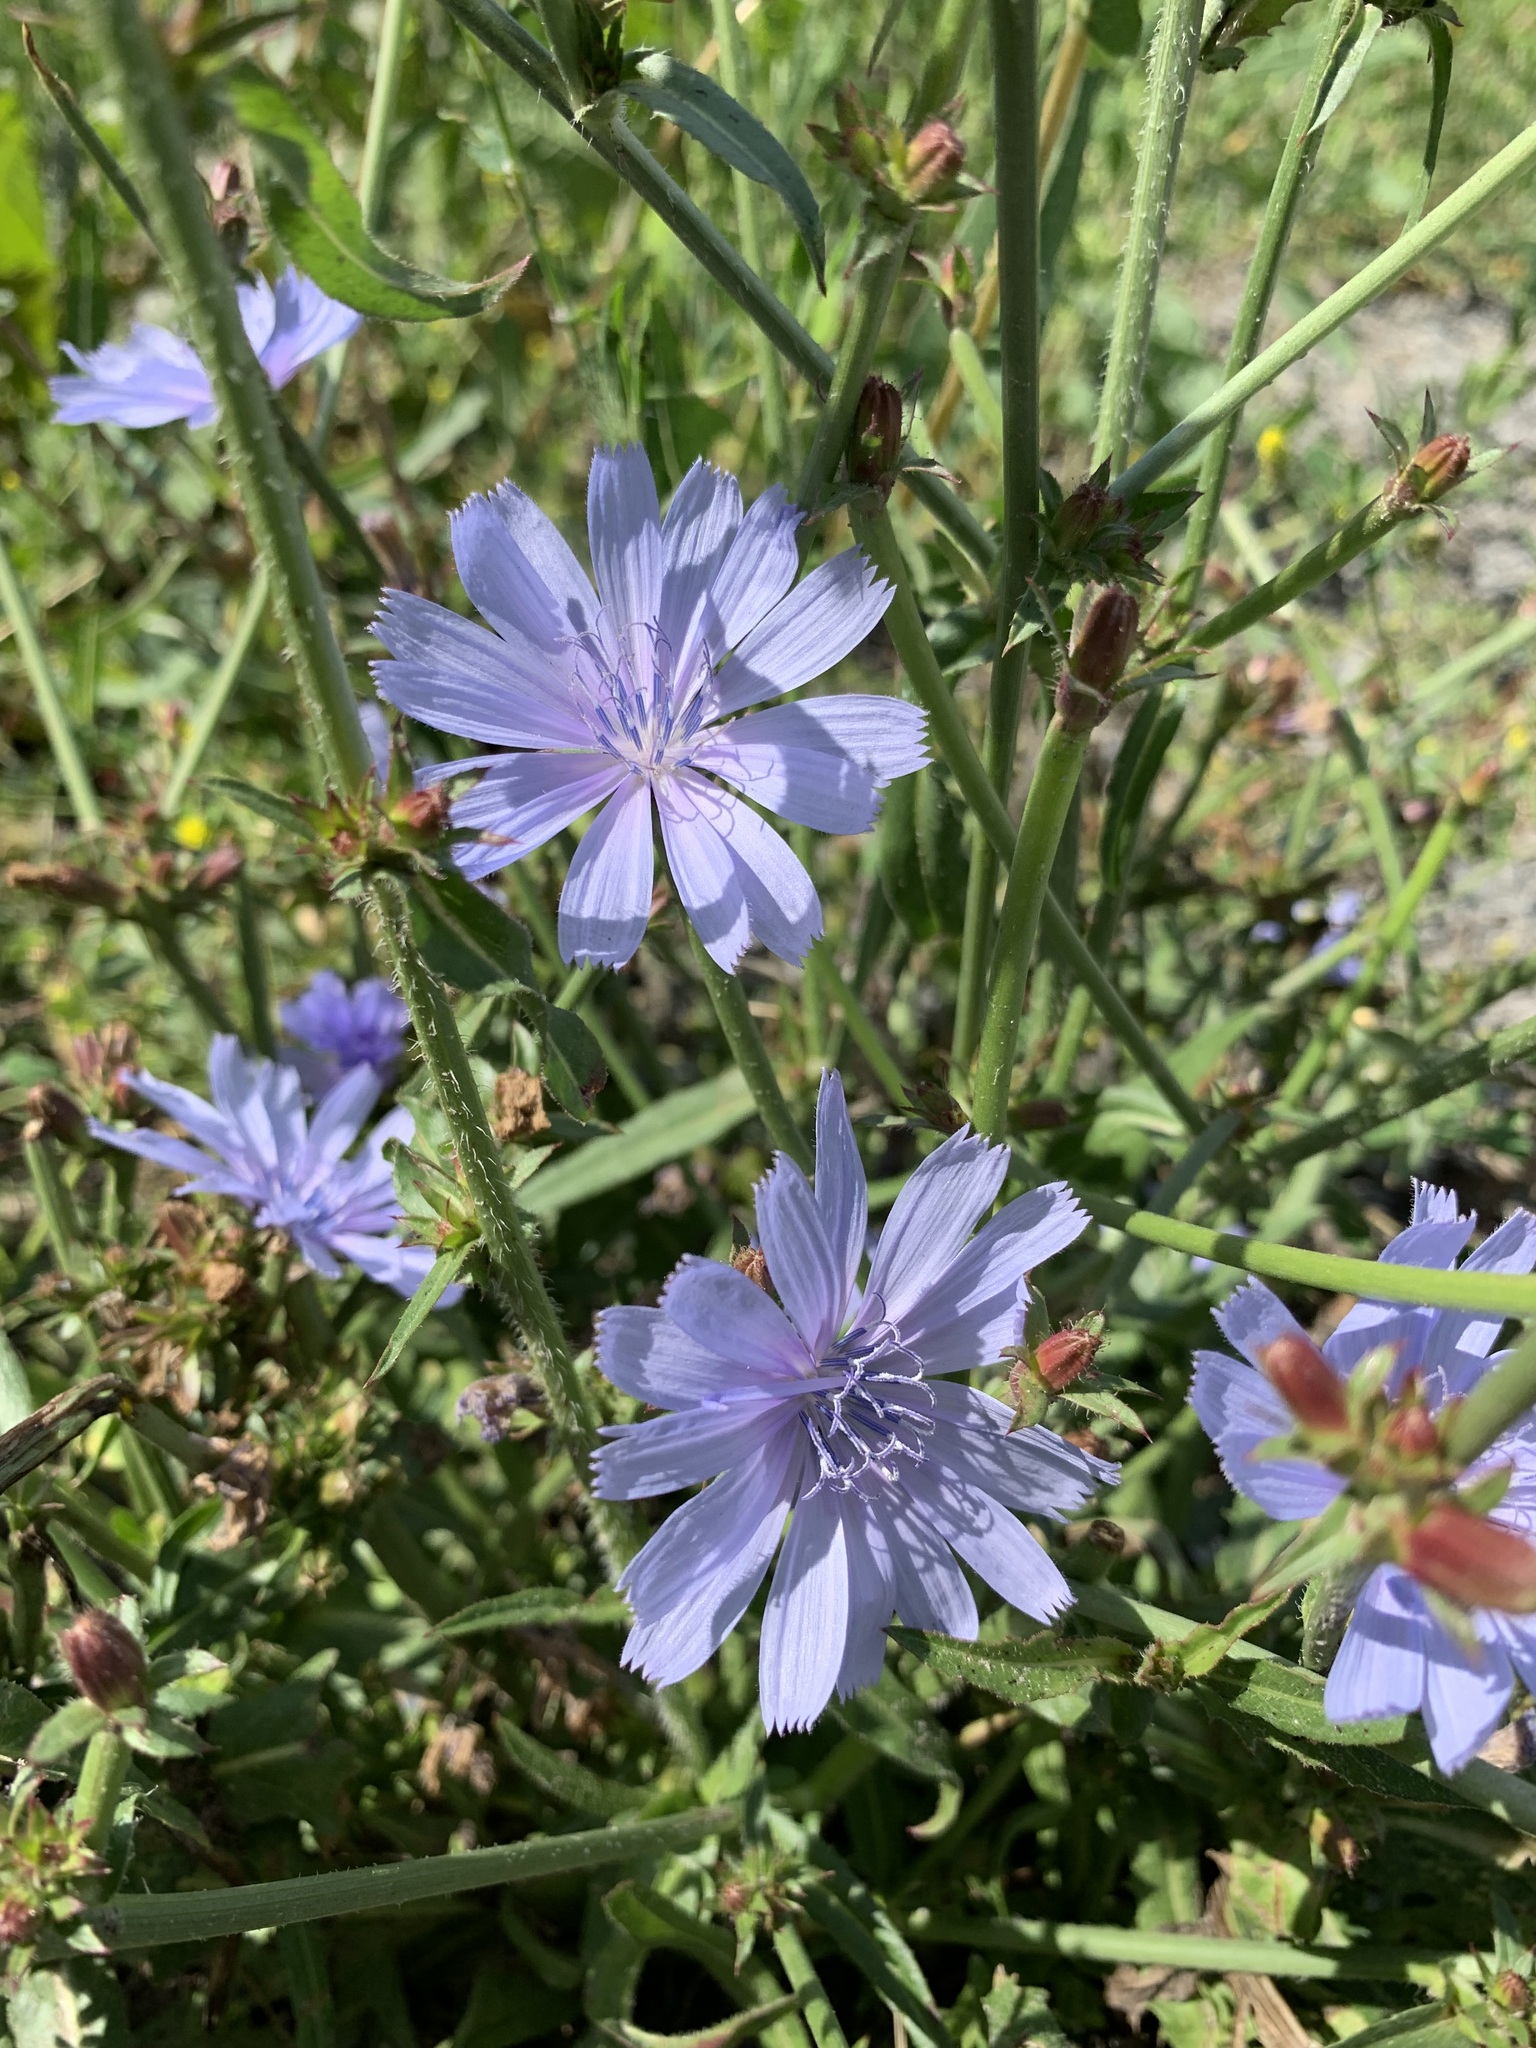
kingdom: Plantae
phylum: Tracheophyta
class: Magnoliopsida
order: Asterales
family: Asteraceae
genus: Cichorium
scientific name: Cichorium intybus
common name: Chicory
